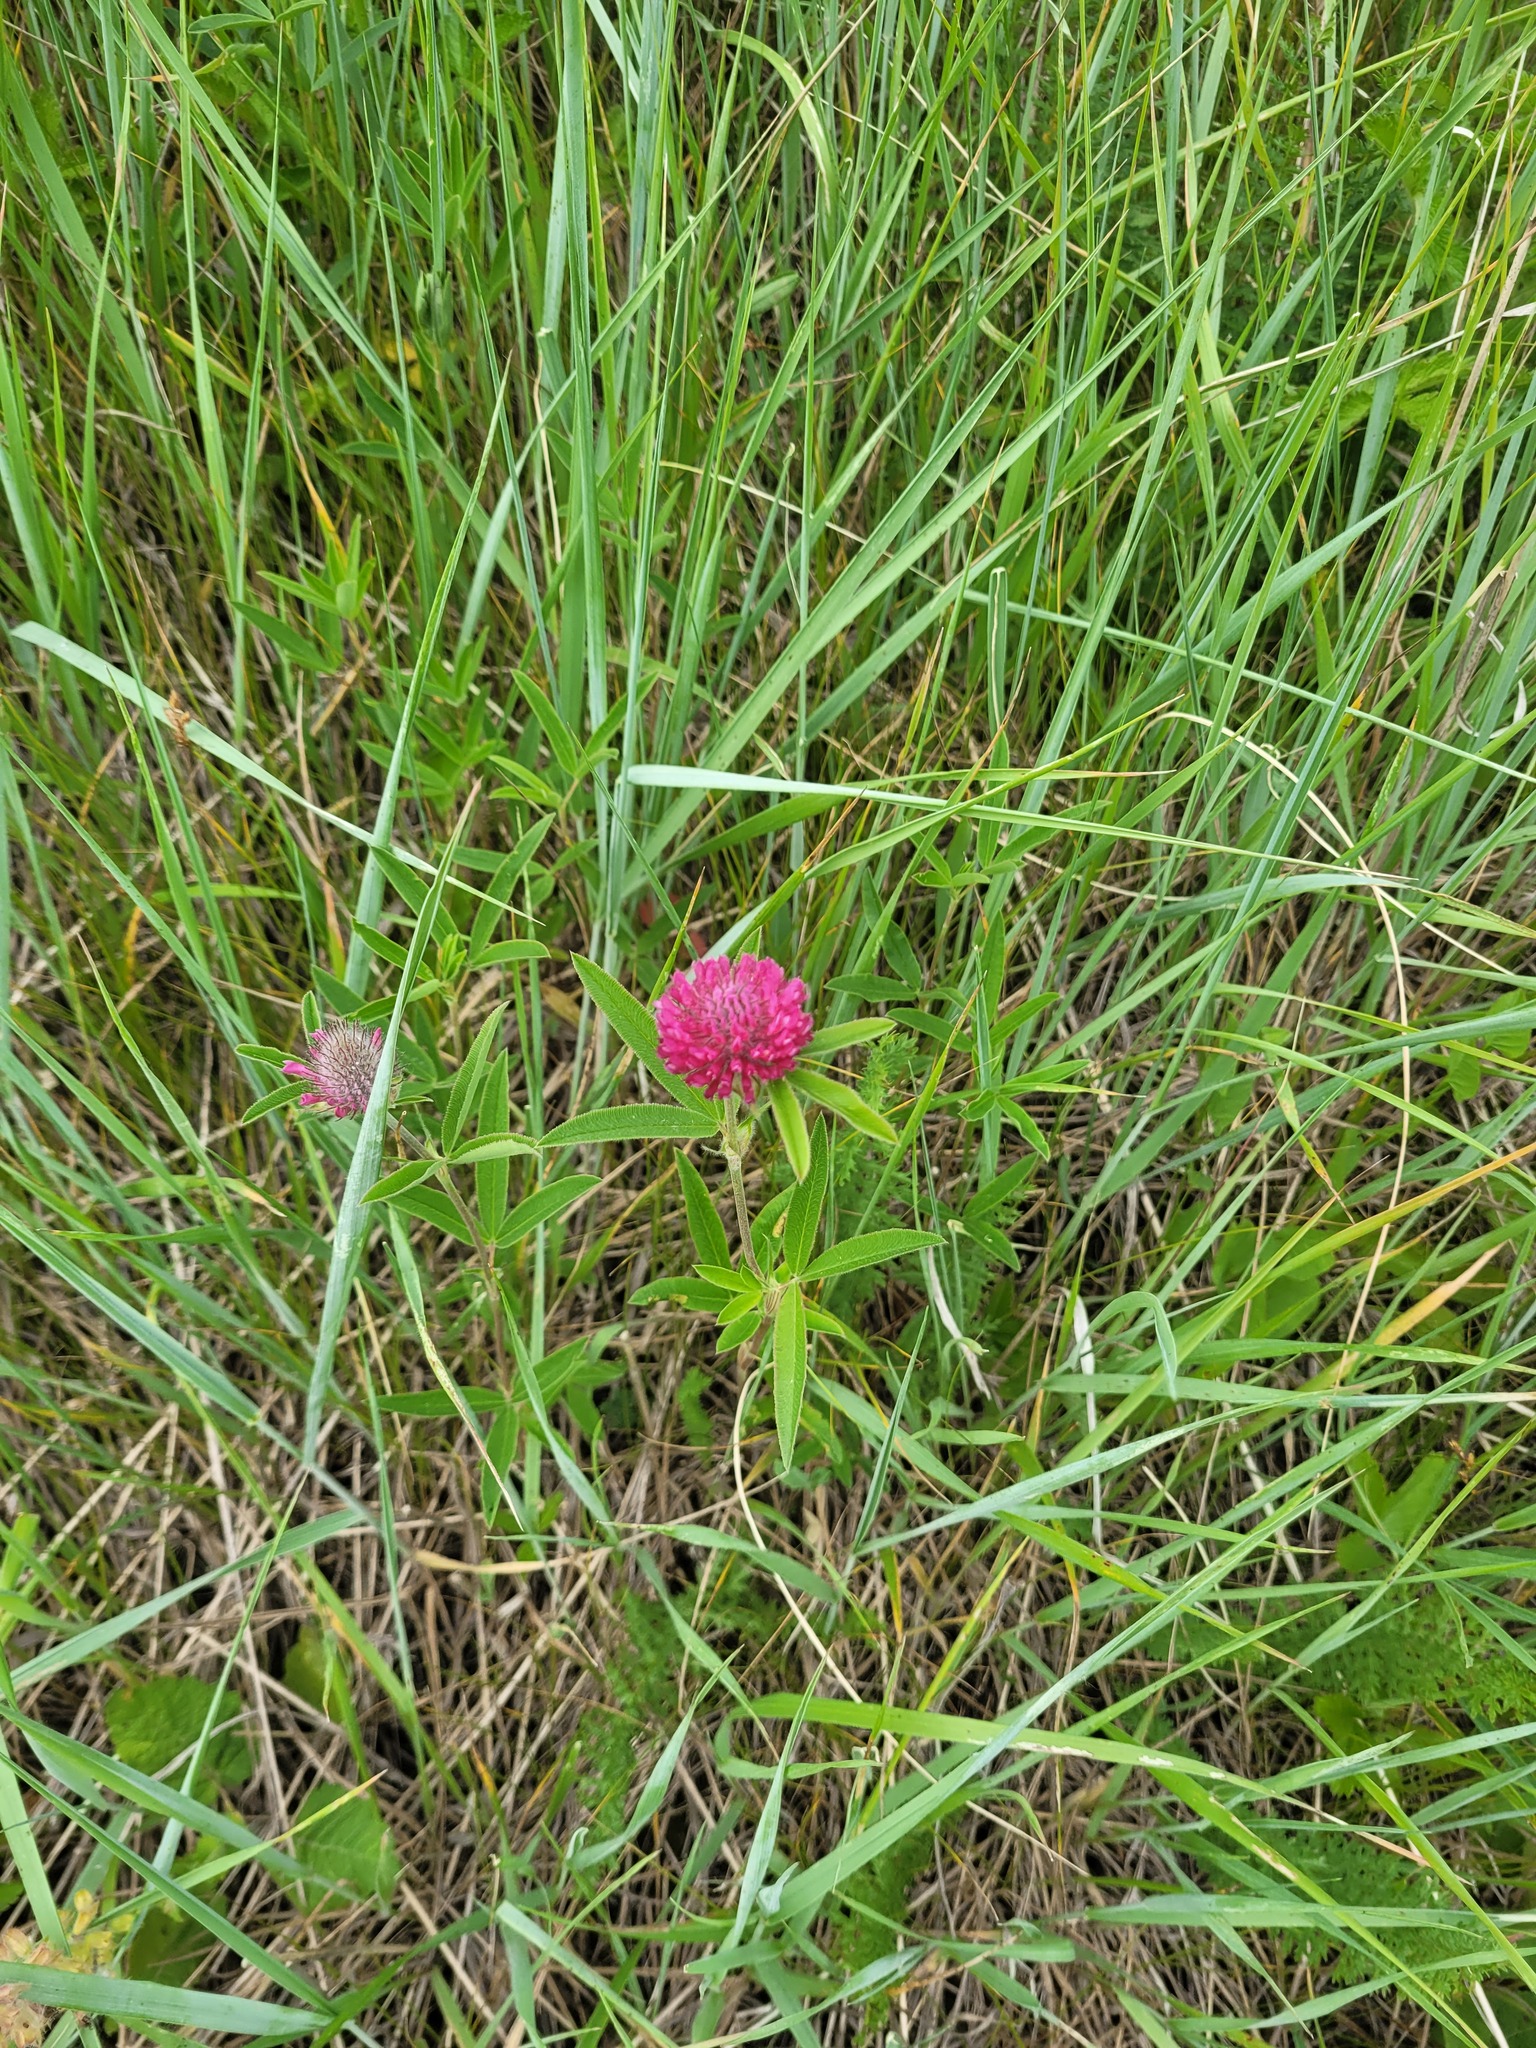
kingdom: Plantae
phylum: Tracheophyta
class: Magnoliopsida
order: Fabales
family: Fabaceae
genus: Trifolium
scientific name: Trifolium alpestre
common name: Owl-head clover
